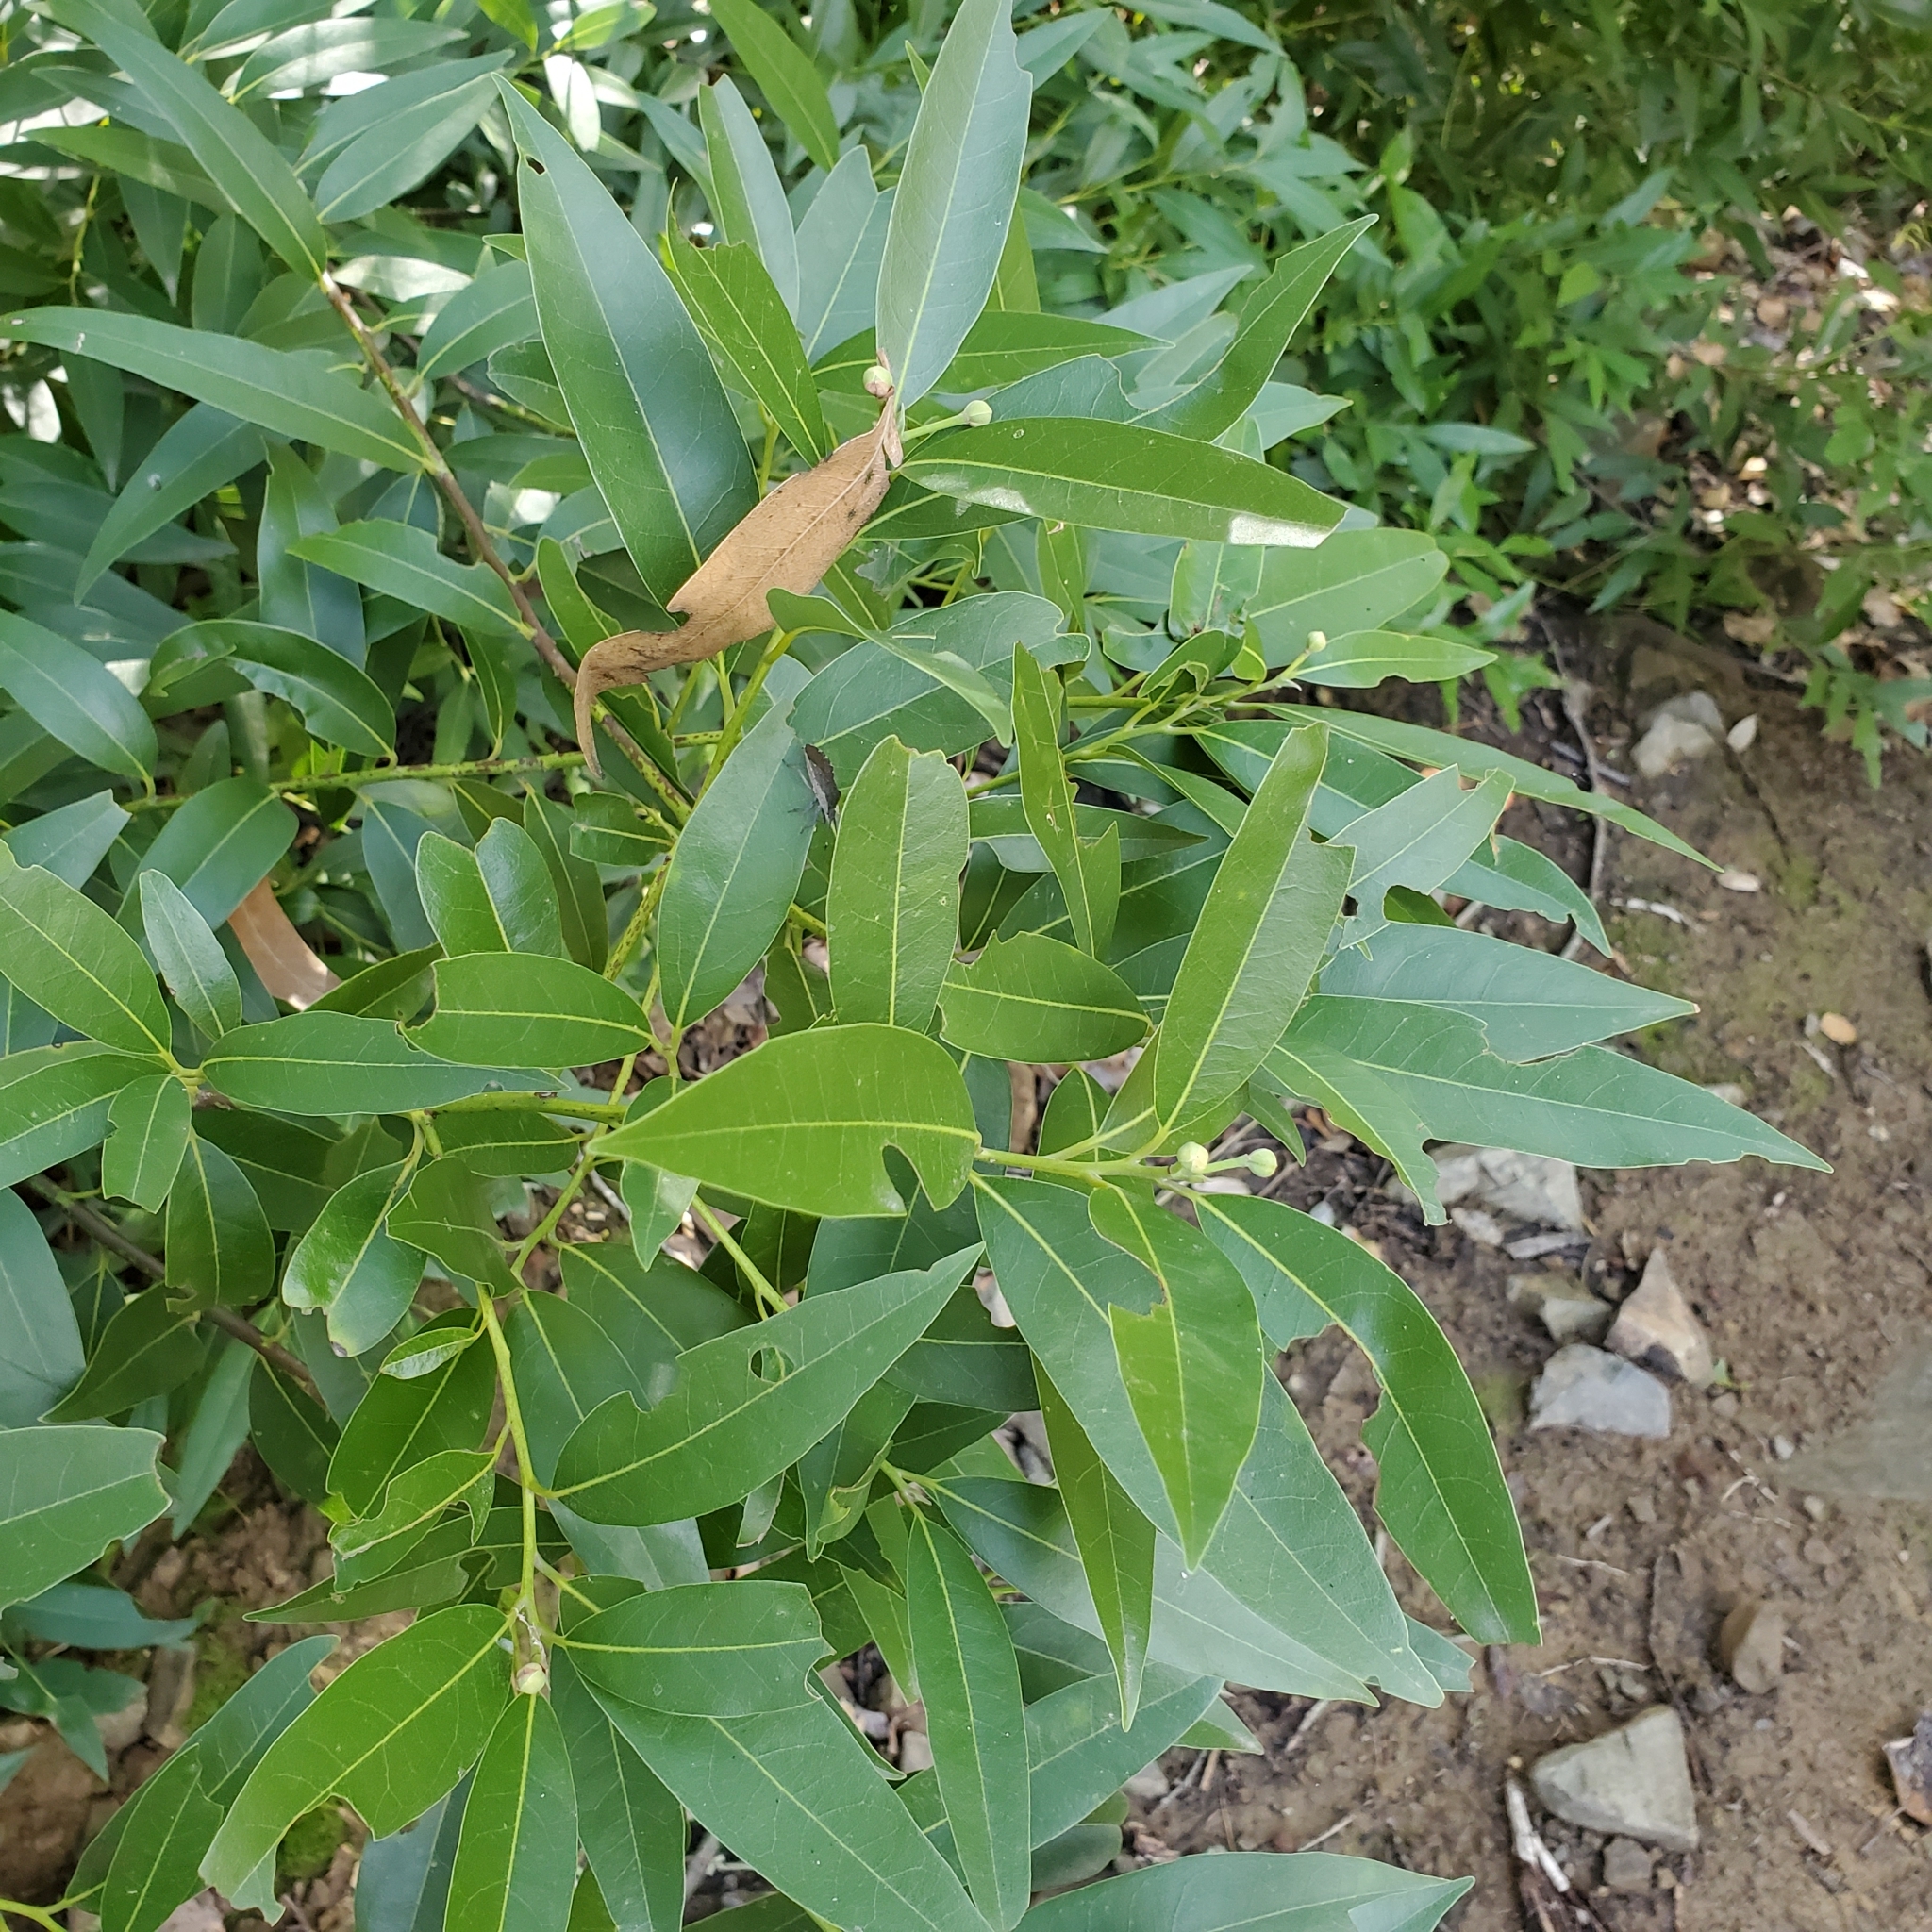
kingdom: Plantae
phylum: Tracheophyta
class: Magnoliopsida
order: Laurales
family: Lauraceae
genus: Umbellularia
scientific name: Umbellularia californica
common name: California bay
